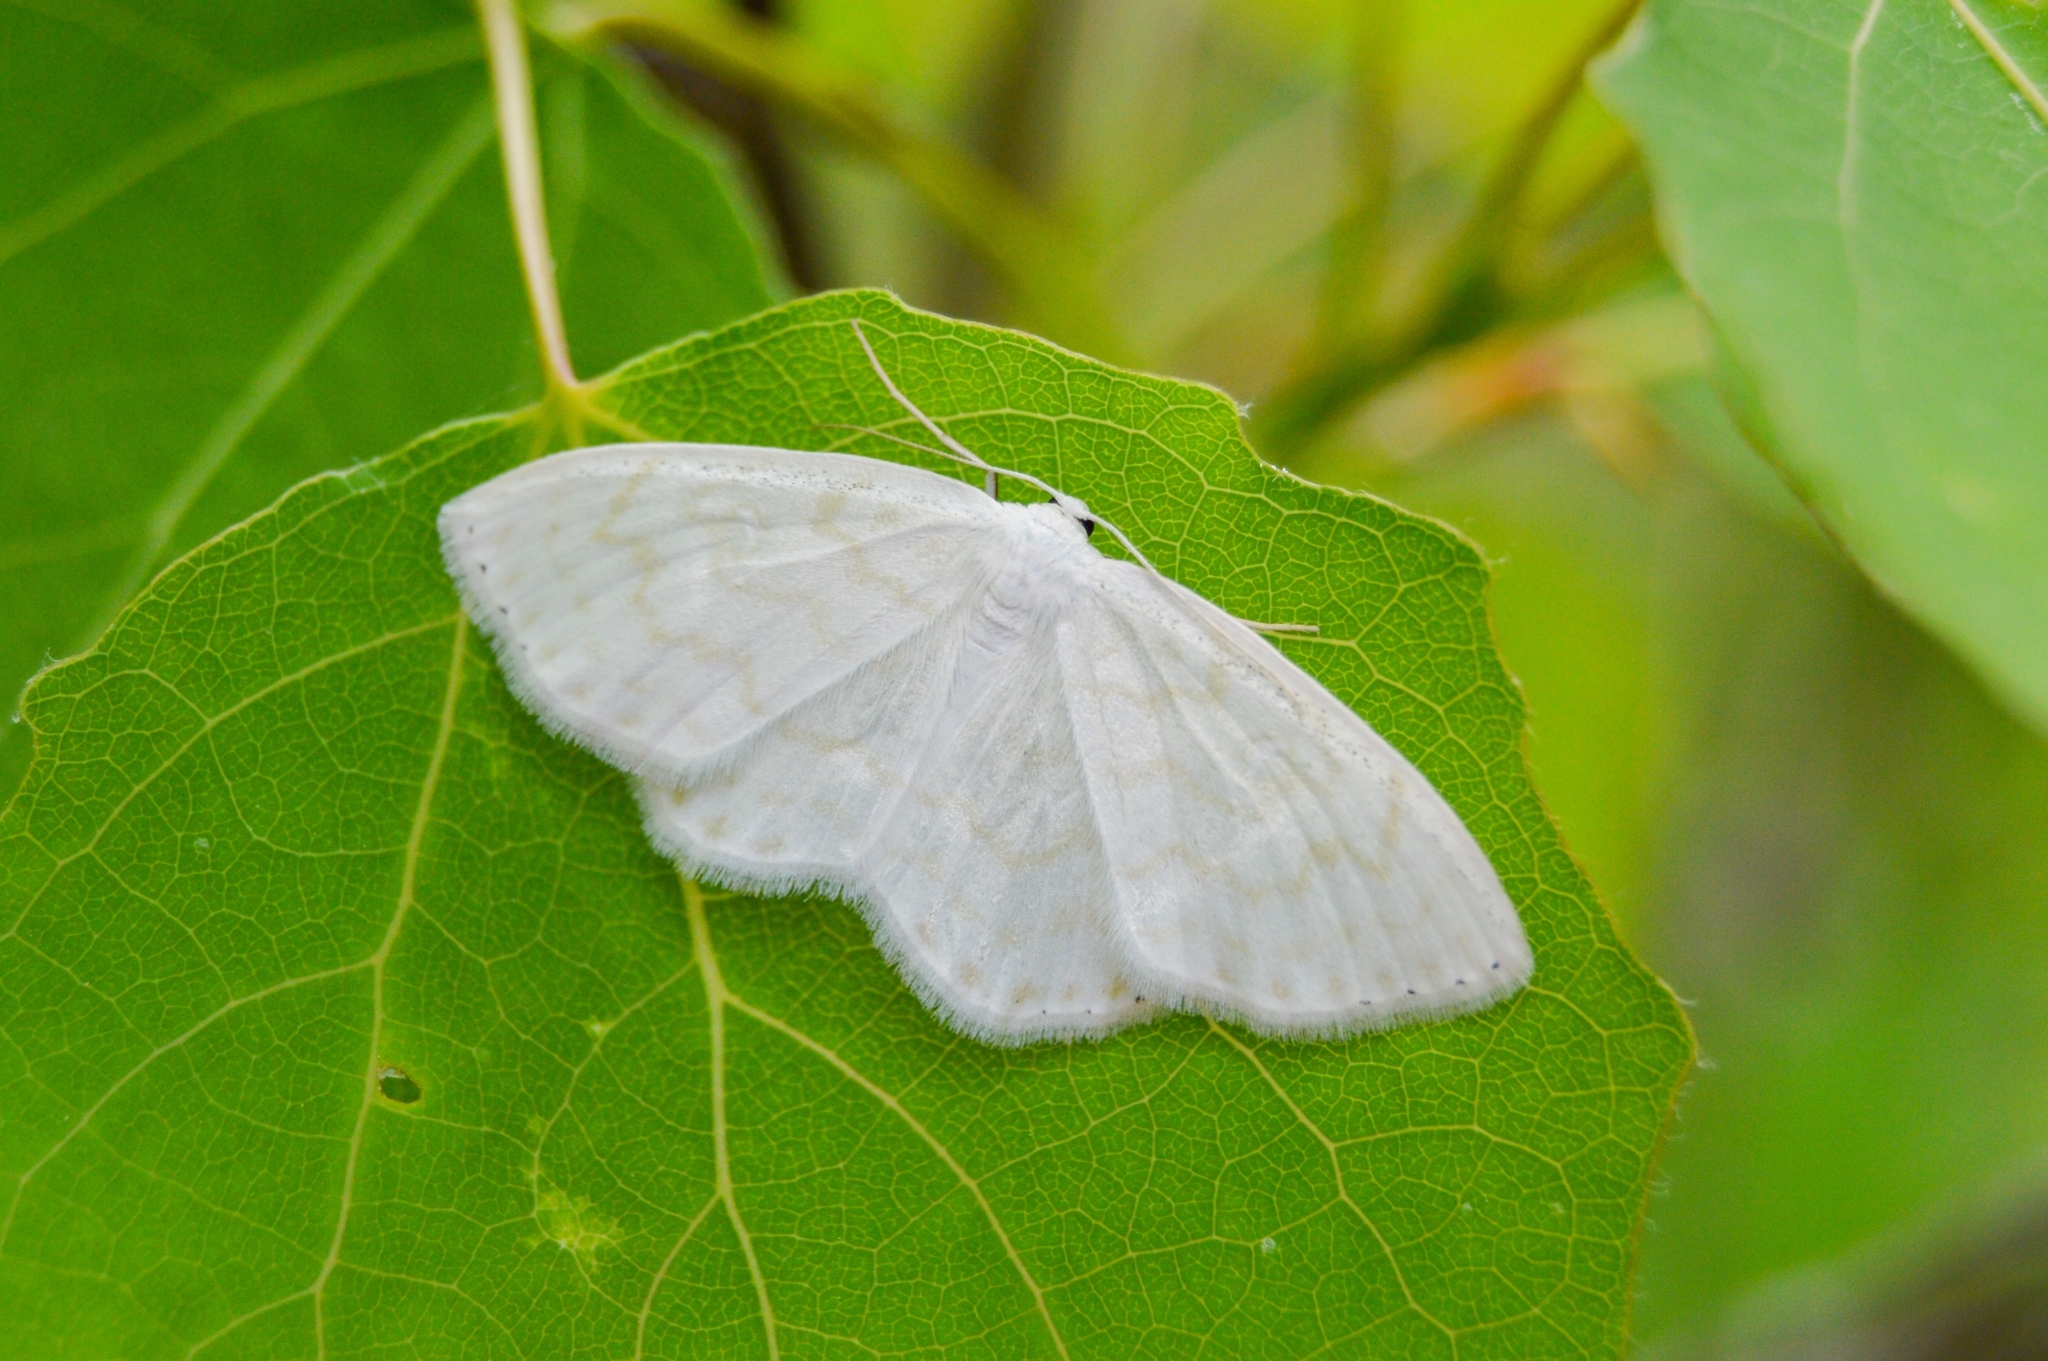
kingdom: Animalia
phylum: Arthropoda
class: Insecta
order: Lepidoptera
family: Geometridae
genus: Scopula
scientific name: Scopula nemoraria
